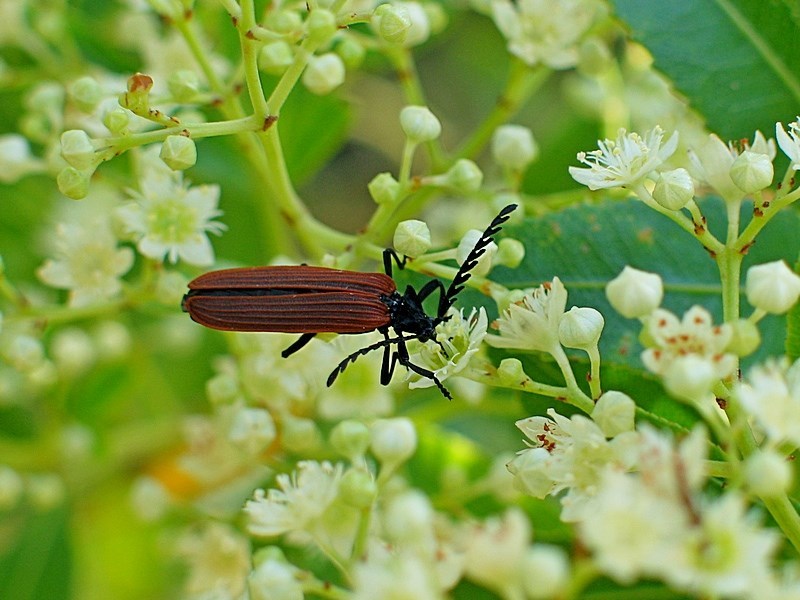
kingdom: Animalia
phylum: Arthropoda
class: Insecta
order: Coleoptera
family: Lycidae
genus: Porrostoma
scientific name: Porrostoma rhipidium
